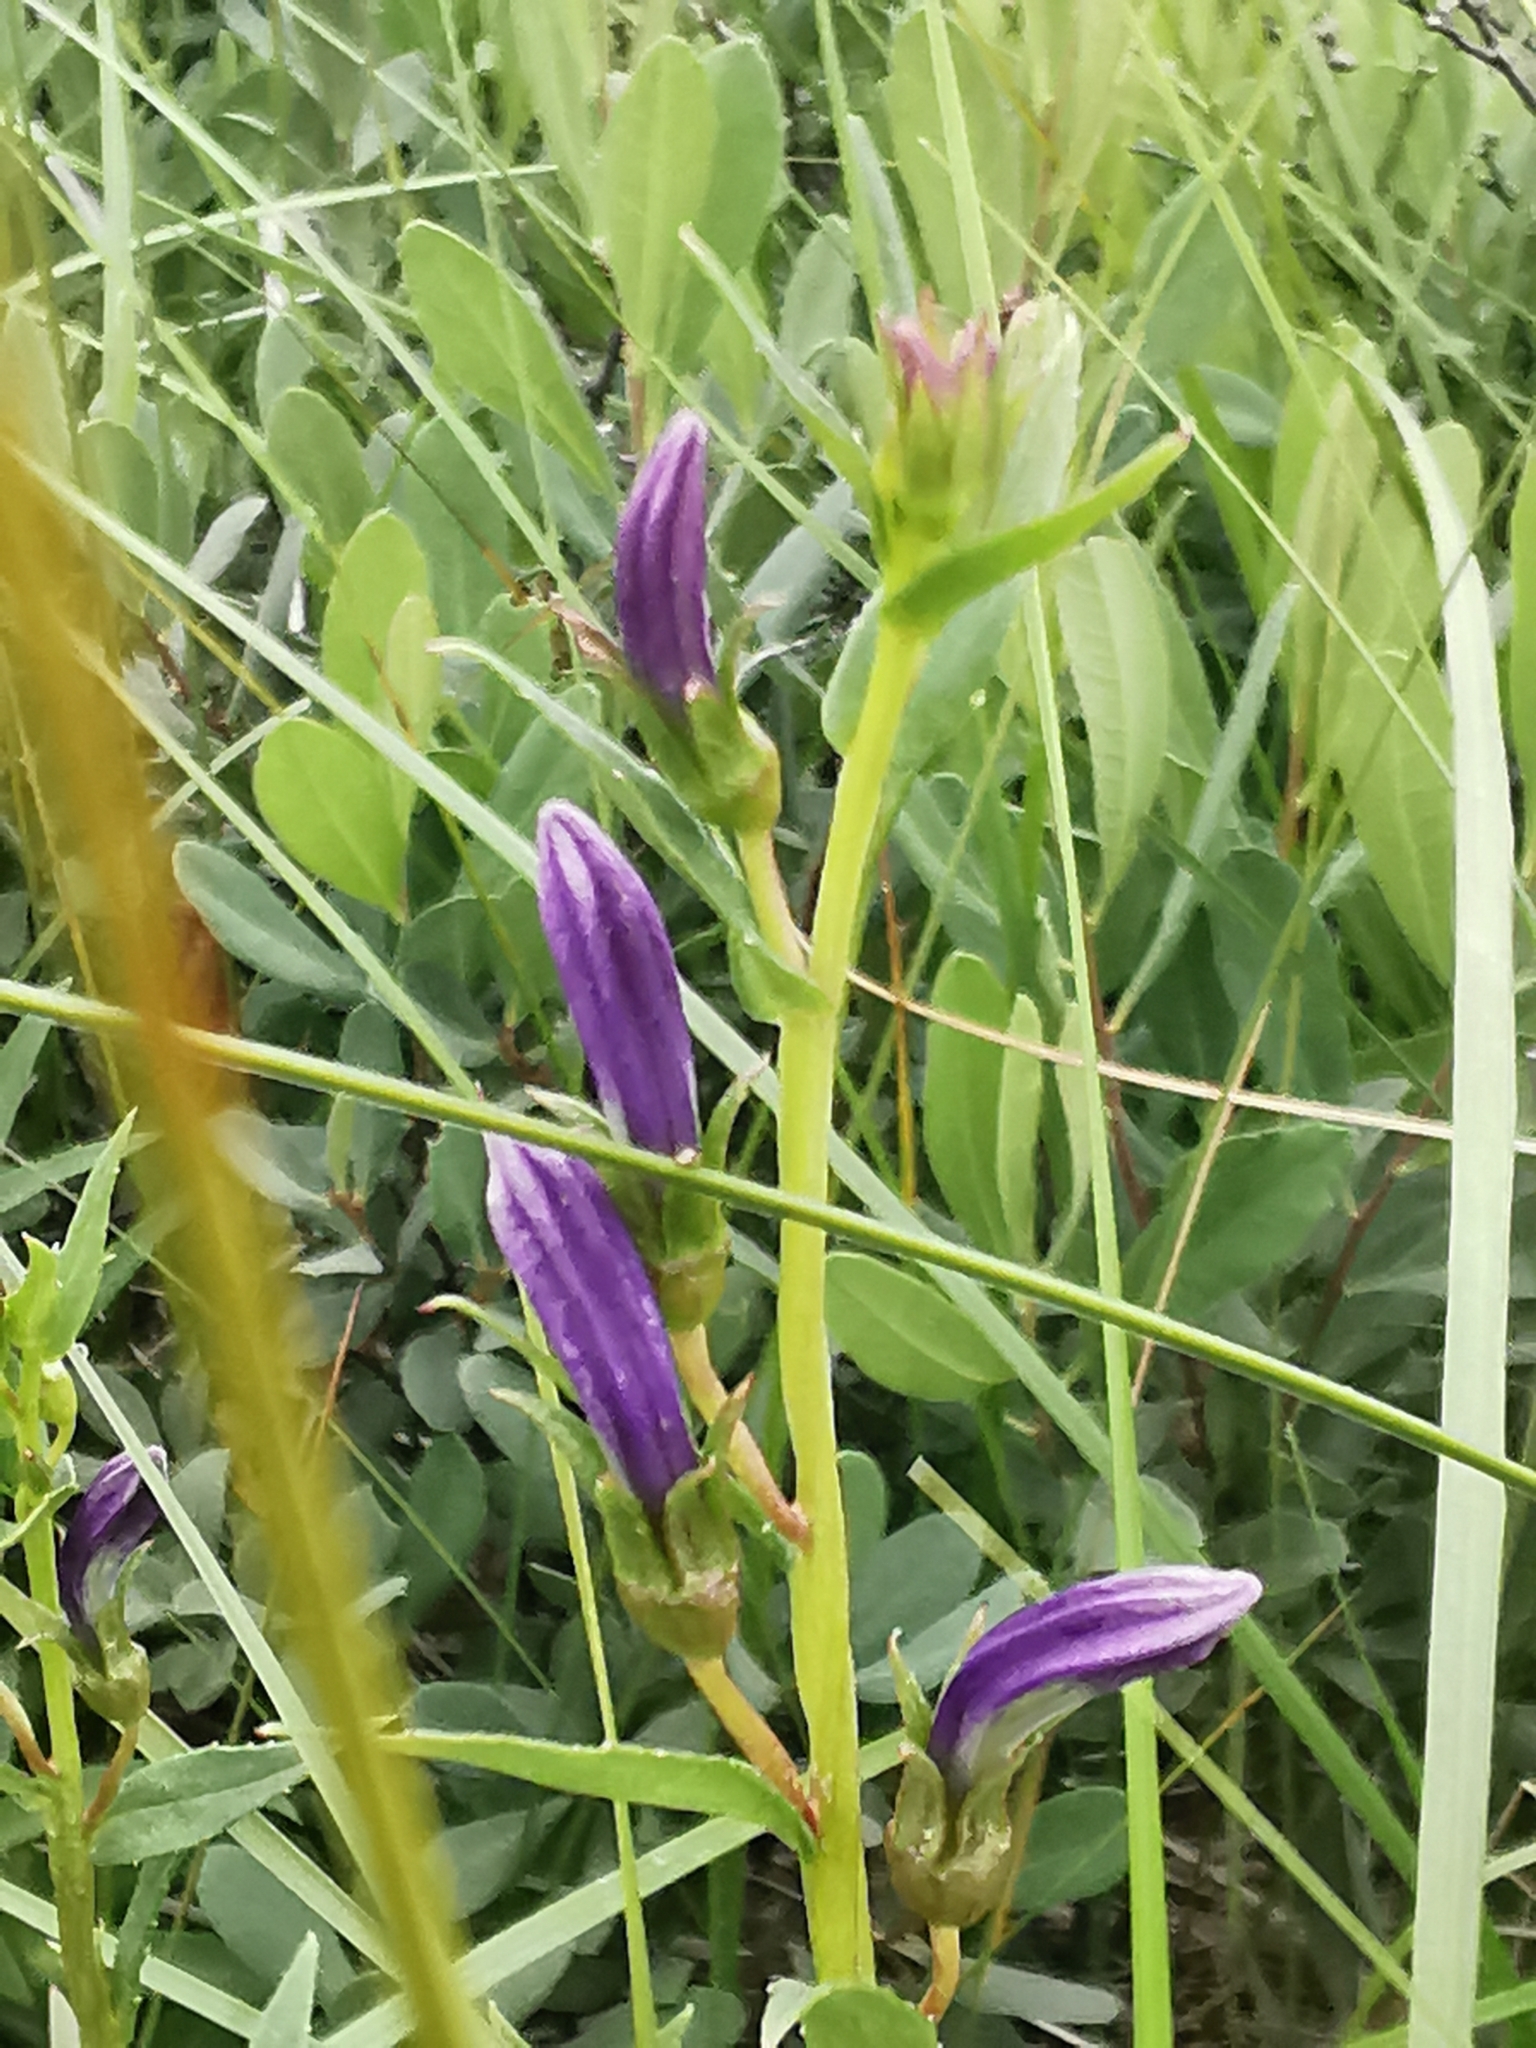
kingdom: Plantae
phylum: Tracheophyta
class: Magnoliopsida
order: Asterales
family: Campanulaceae
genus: Lobelia
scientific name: Lobelia sessilifolia
